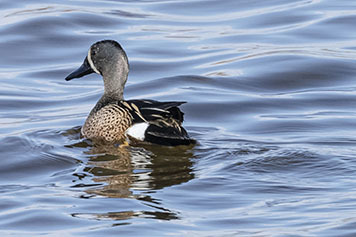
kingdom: Animalia
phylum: Chordata
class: Aves
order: Anseriformes
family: Anatidae
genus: Spatula
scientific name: Spatula discors
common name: Blue-winged teal
